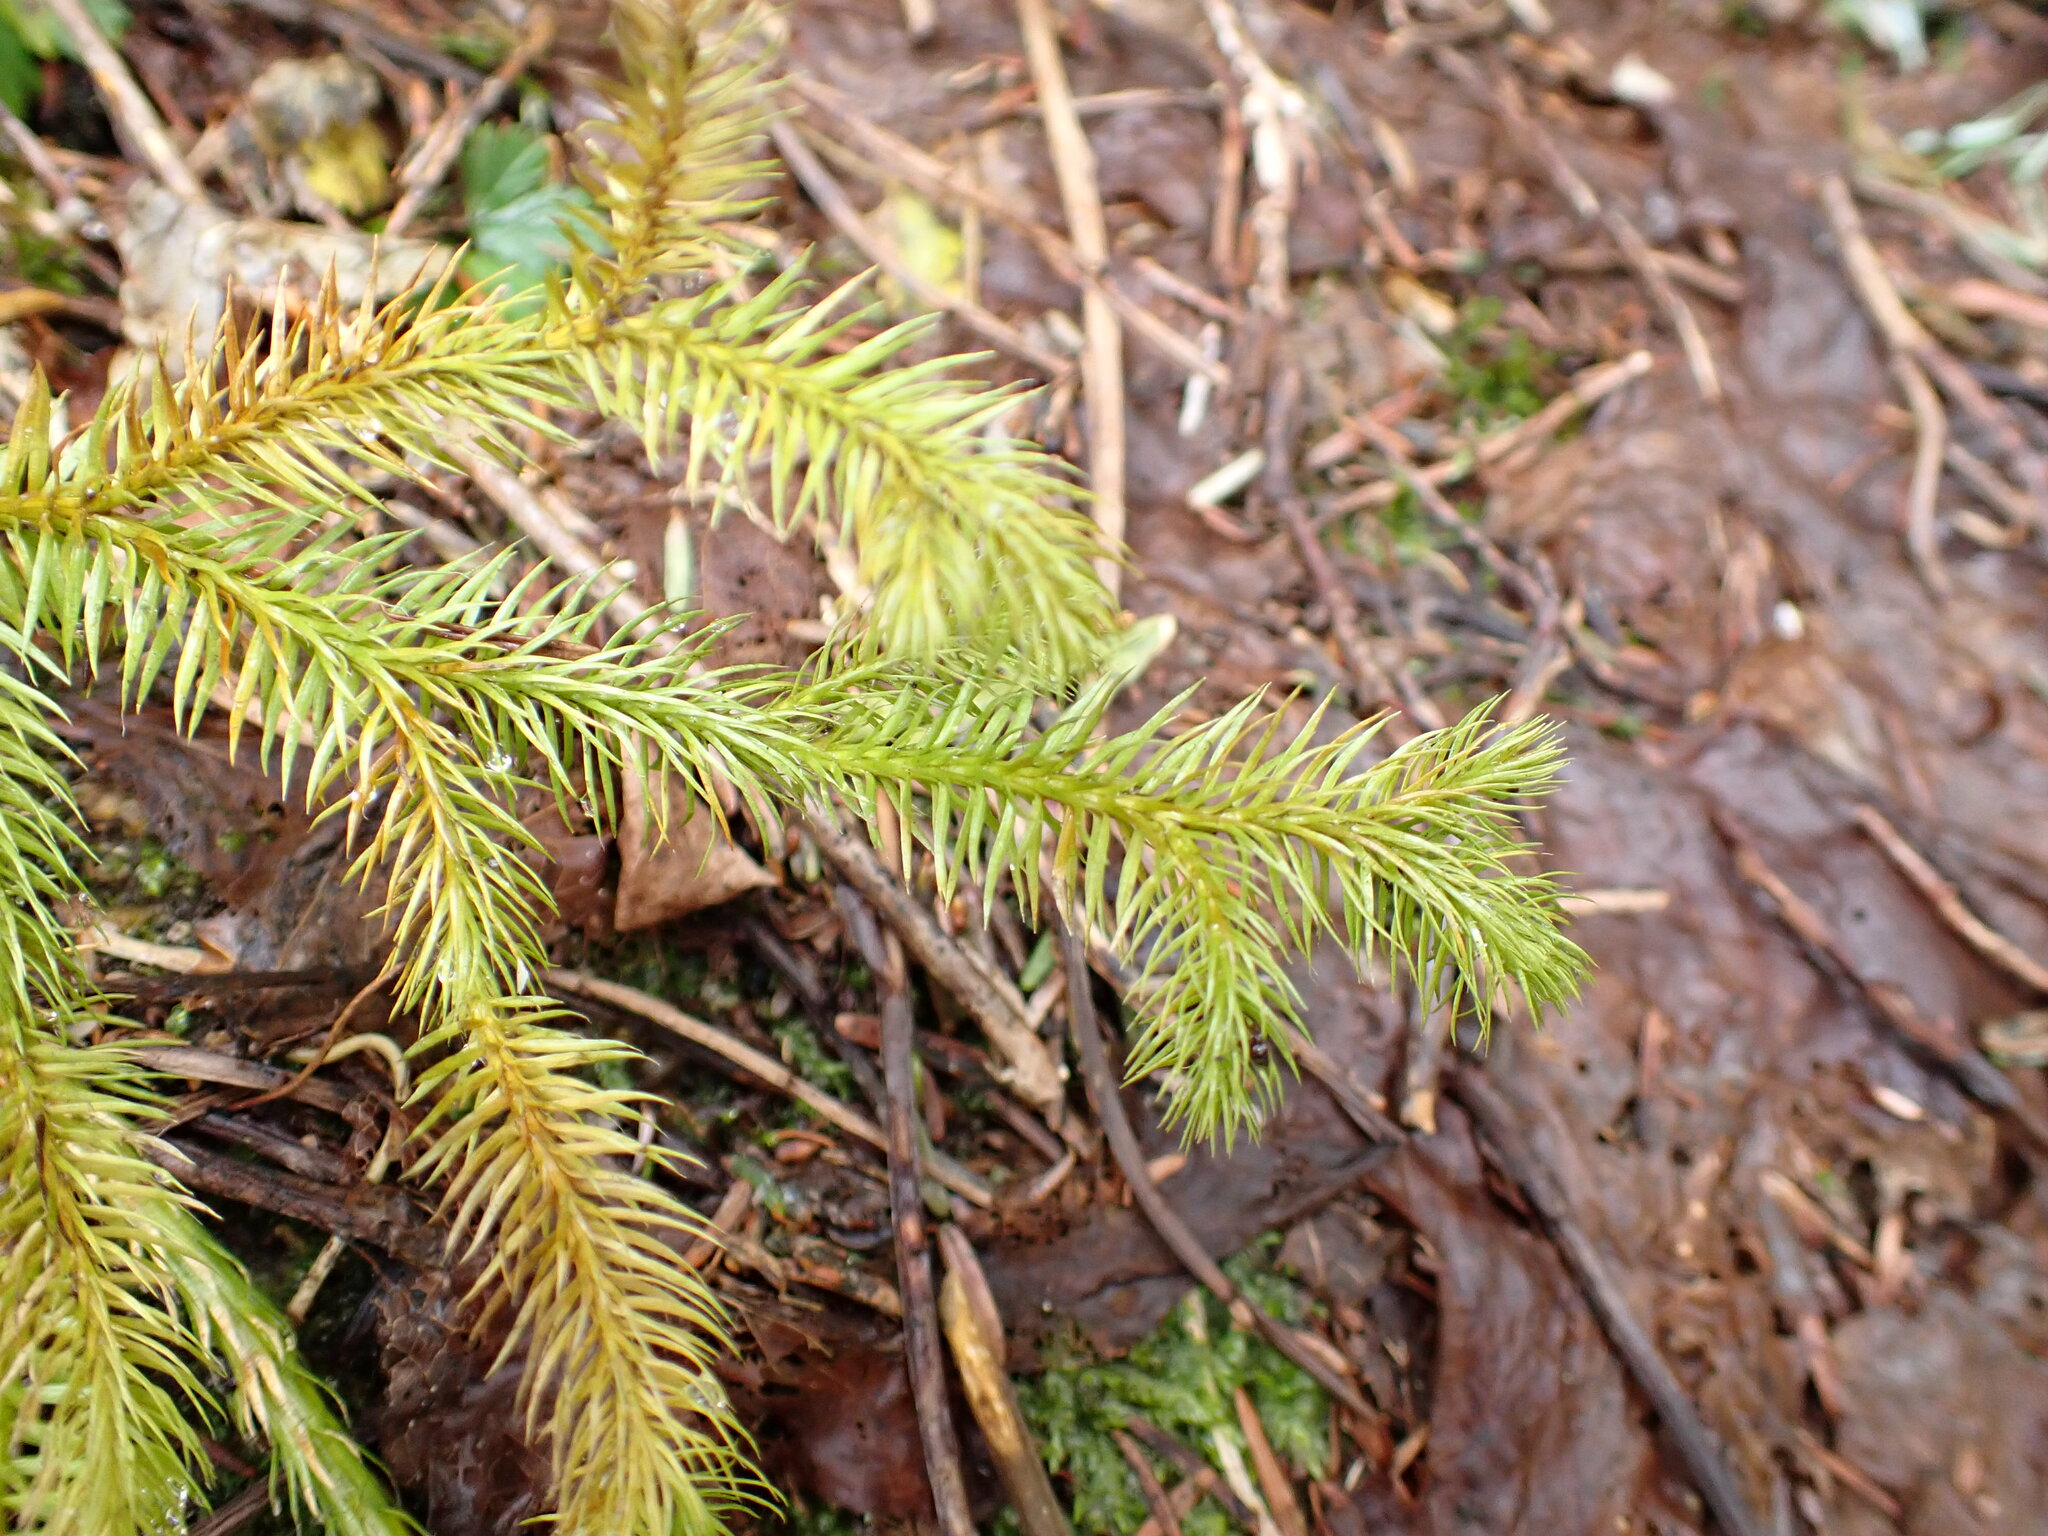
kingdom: Plantae
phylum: Tracheophyta
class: Lycopodiopsida
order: Lycopodiales
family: Lycopodiaceae
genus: Lycopodium
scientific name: Lycopodium clavatum
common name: Stag's-horn clubmoss
